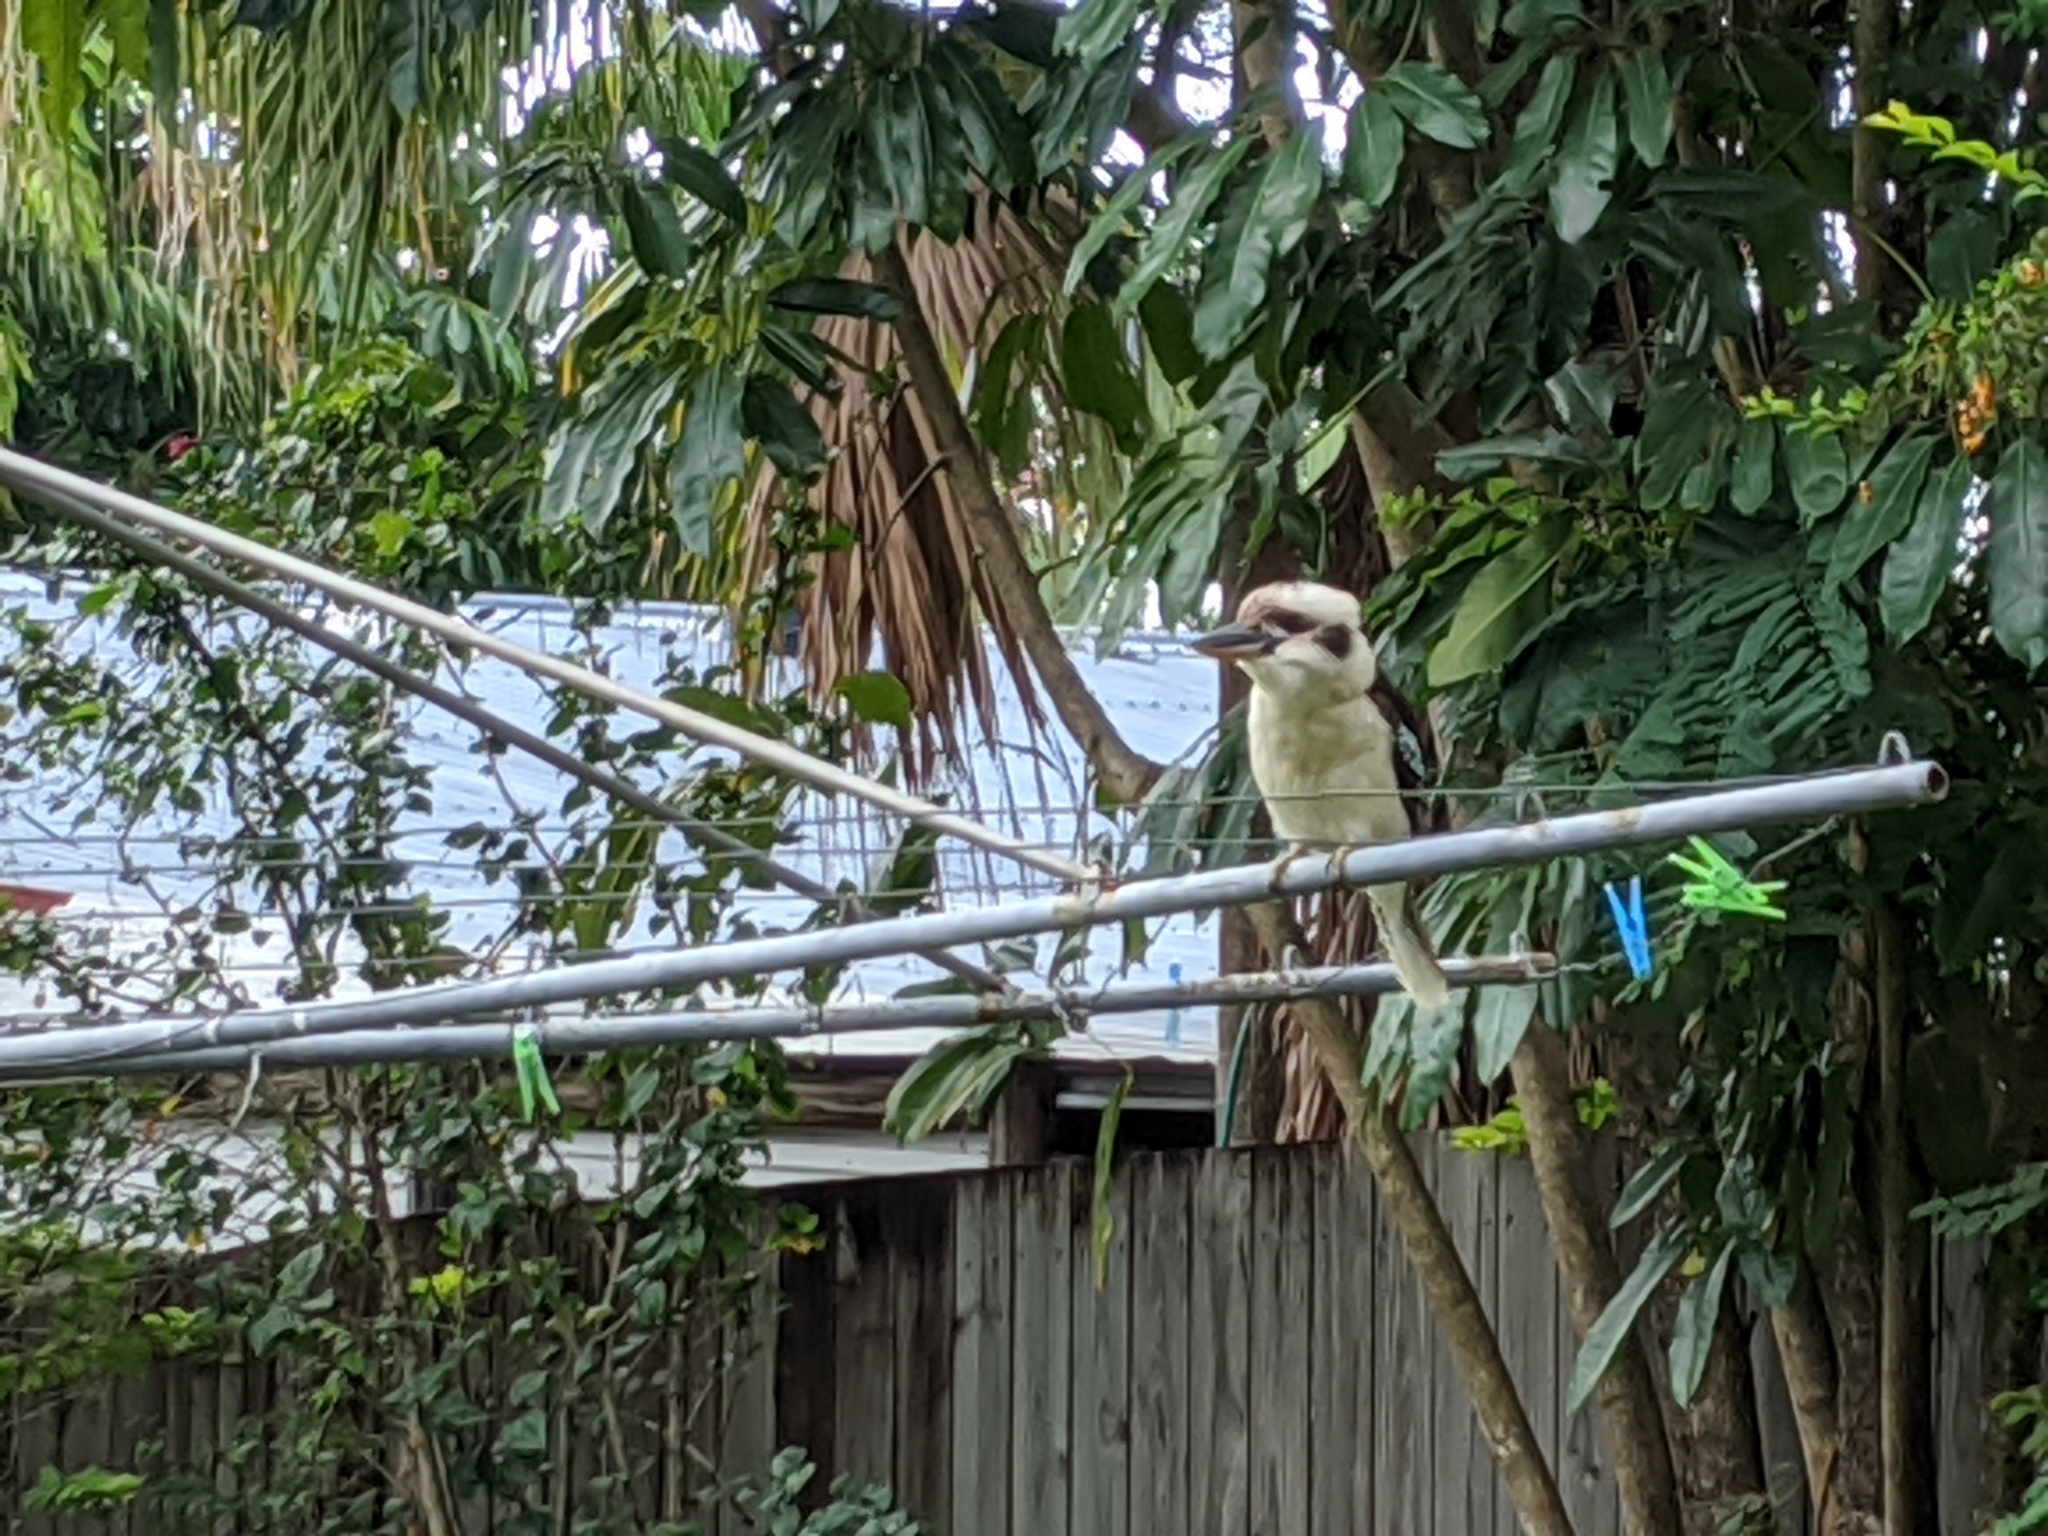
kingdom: Animalia
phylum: Chordata
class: Aves
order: Coraciiformes
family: Alcedinidae
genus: Dacelo
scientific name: Dacelo novaeguineae
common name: Laughing kookaburra
